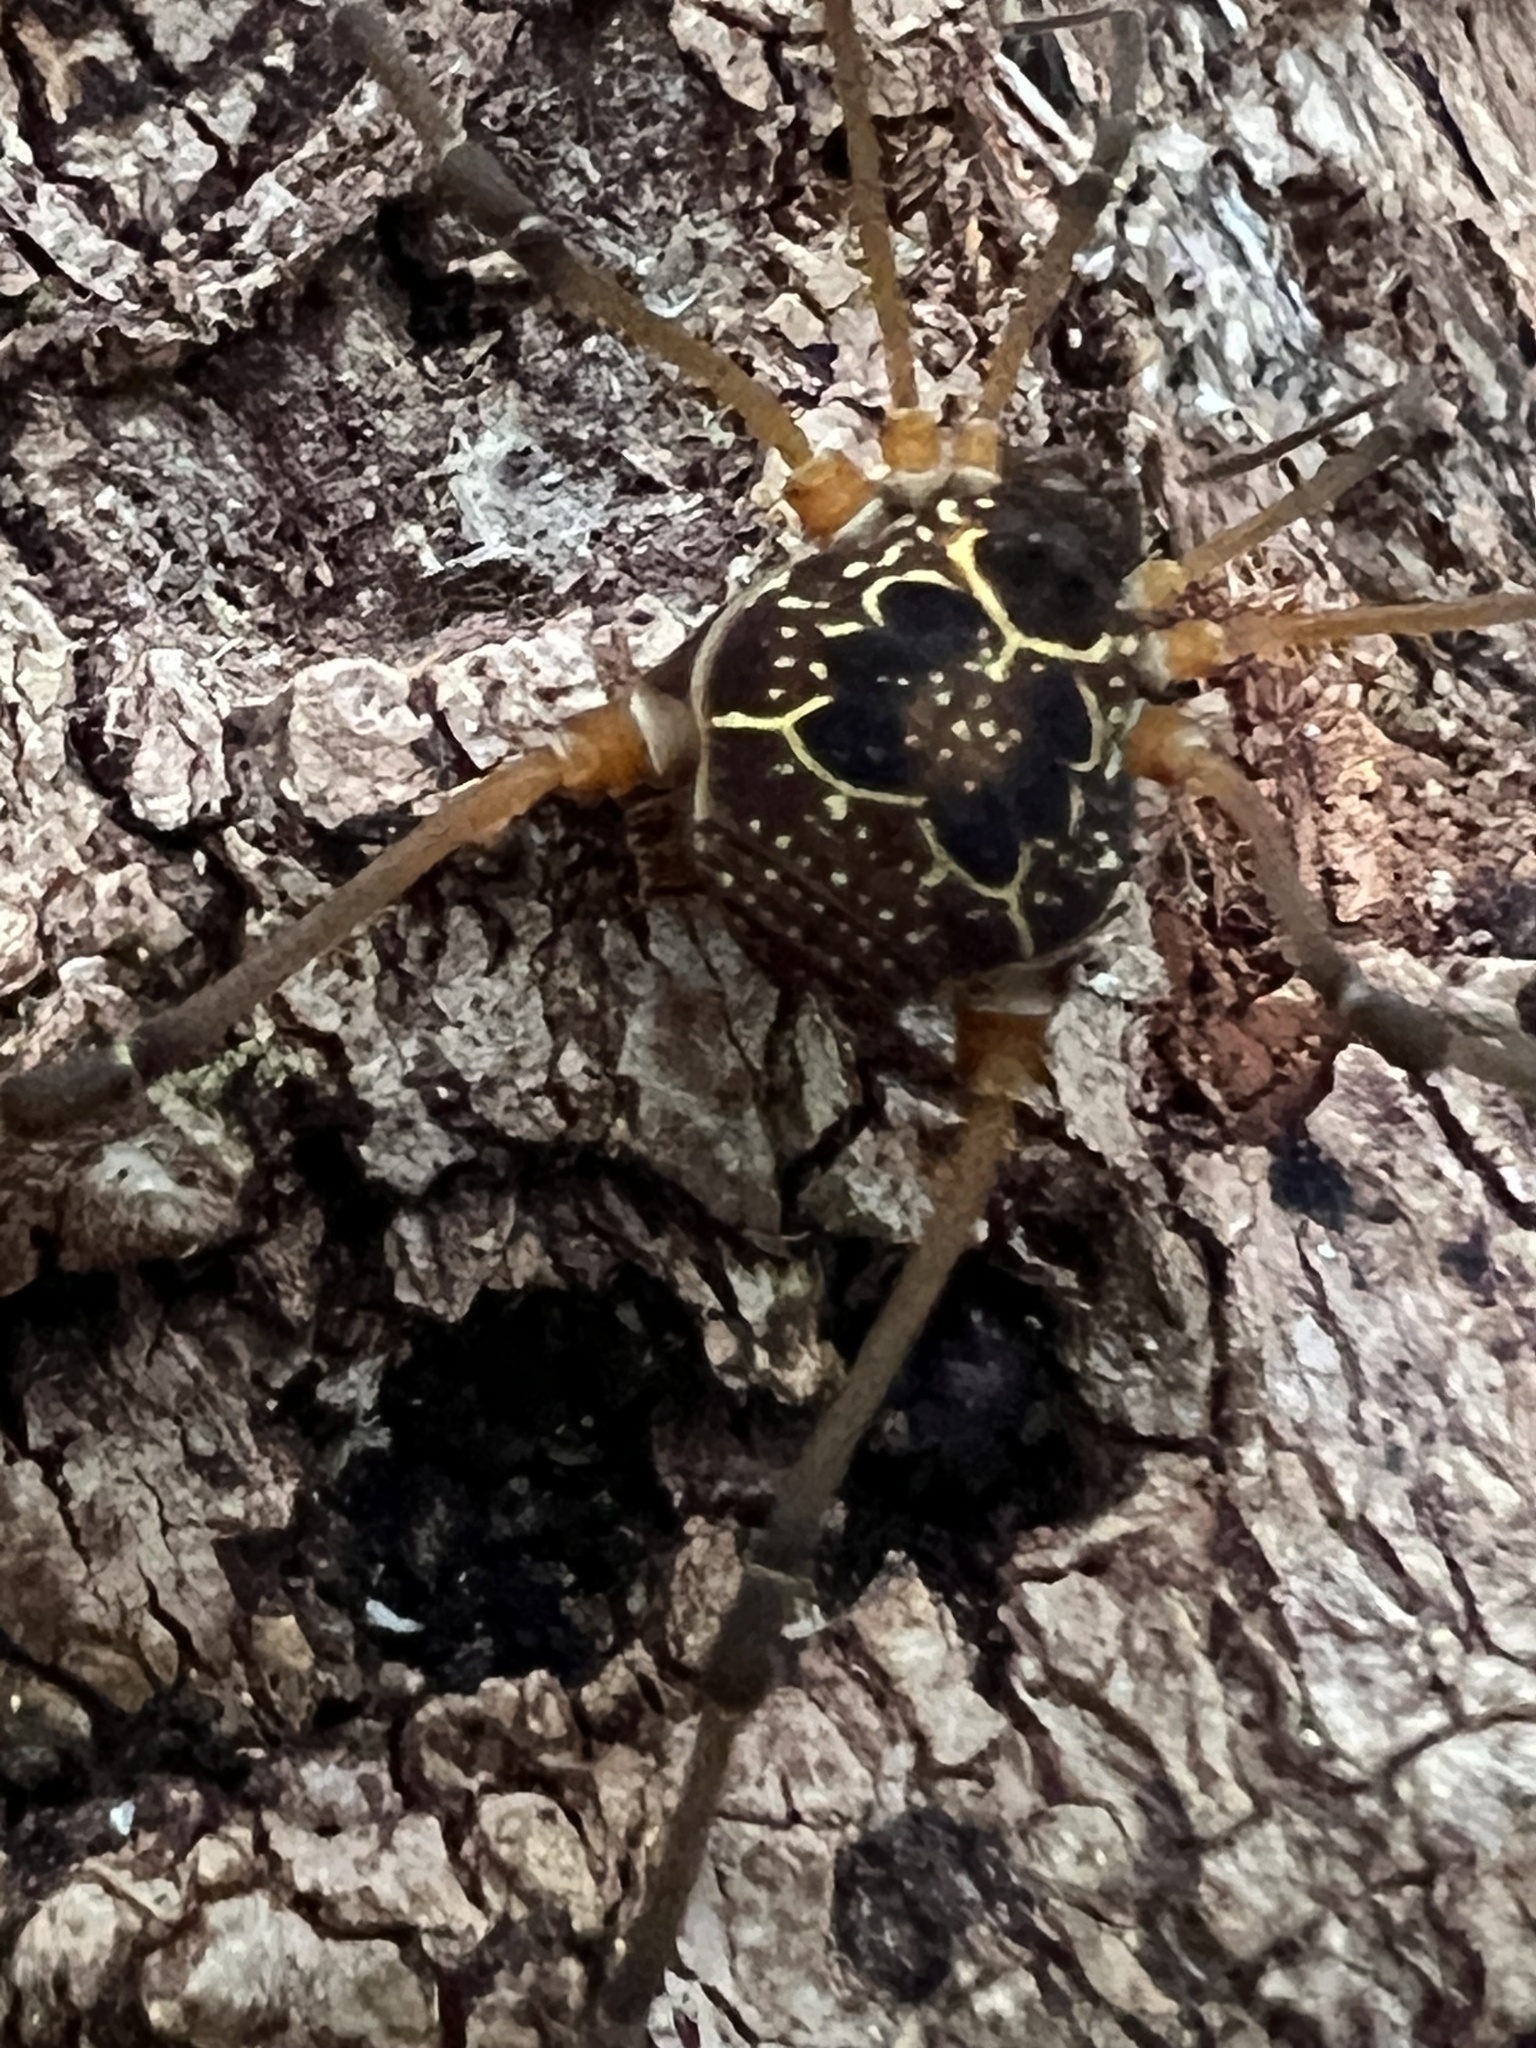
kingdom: Animalia
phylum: Arthropoda
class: Arachnida
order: Opiliones
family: Cosmetidae
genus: Eucynortula
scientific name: Eucynortula albipunctata
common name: Harvestmen
